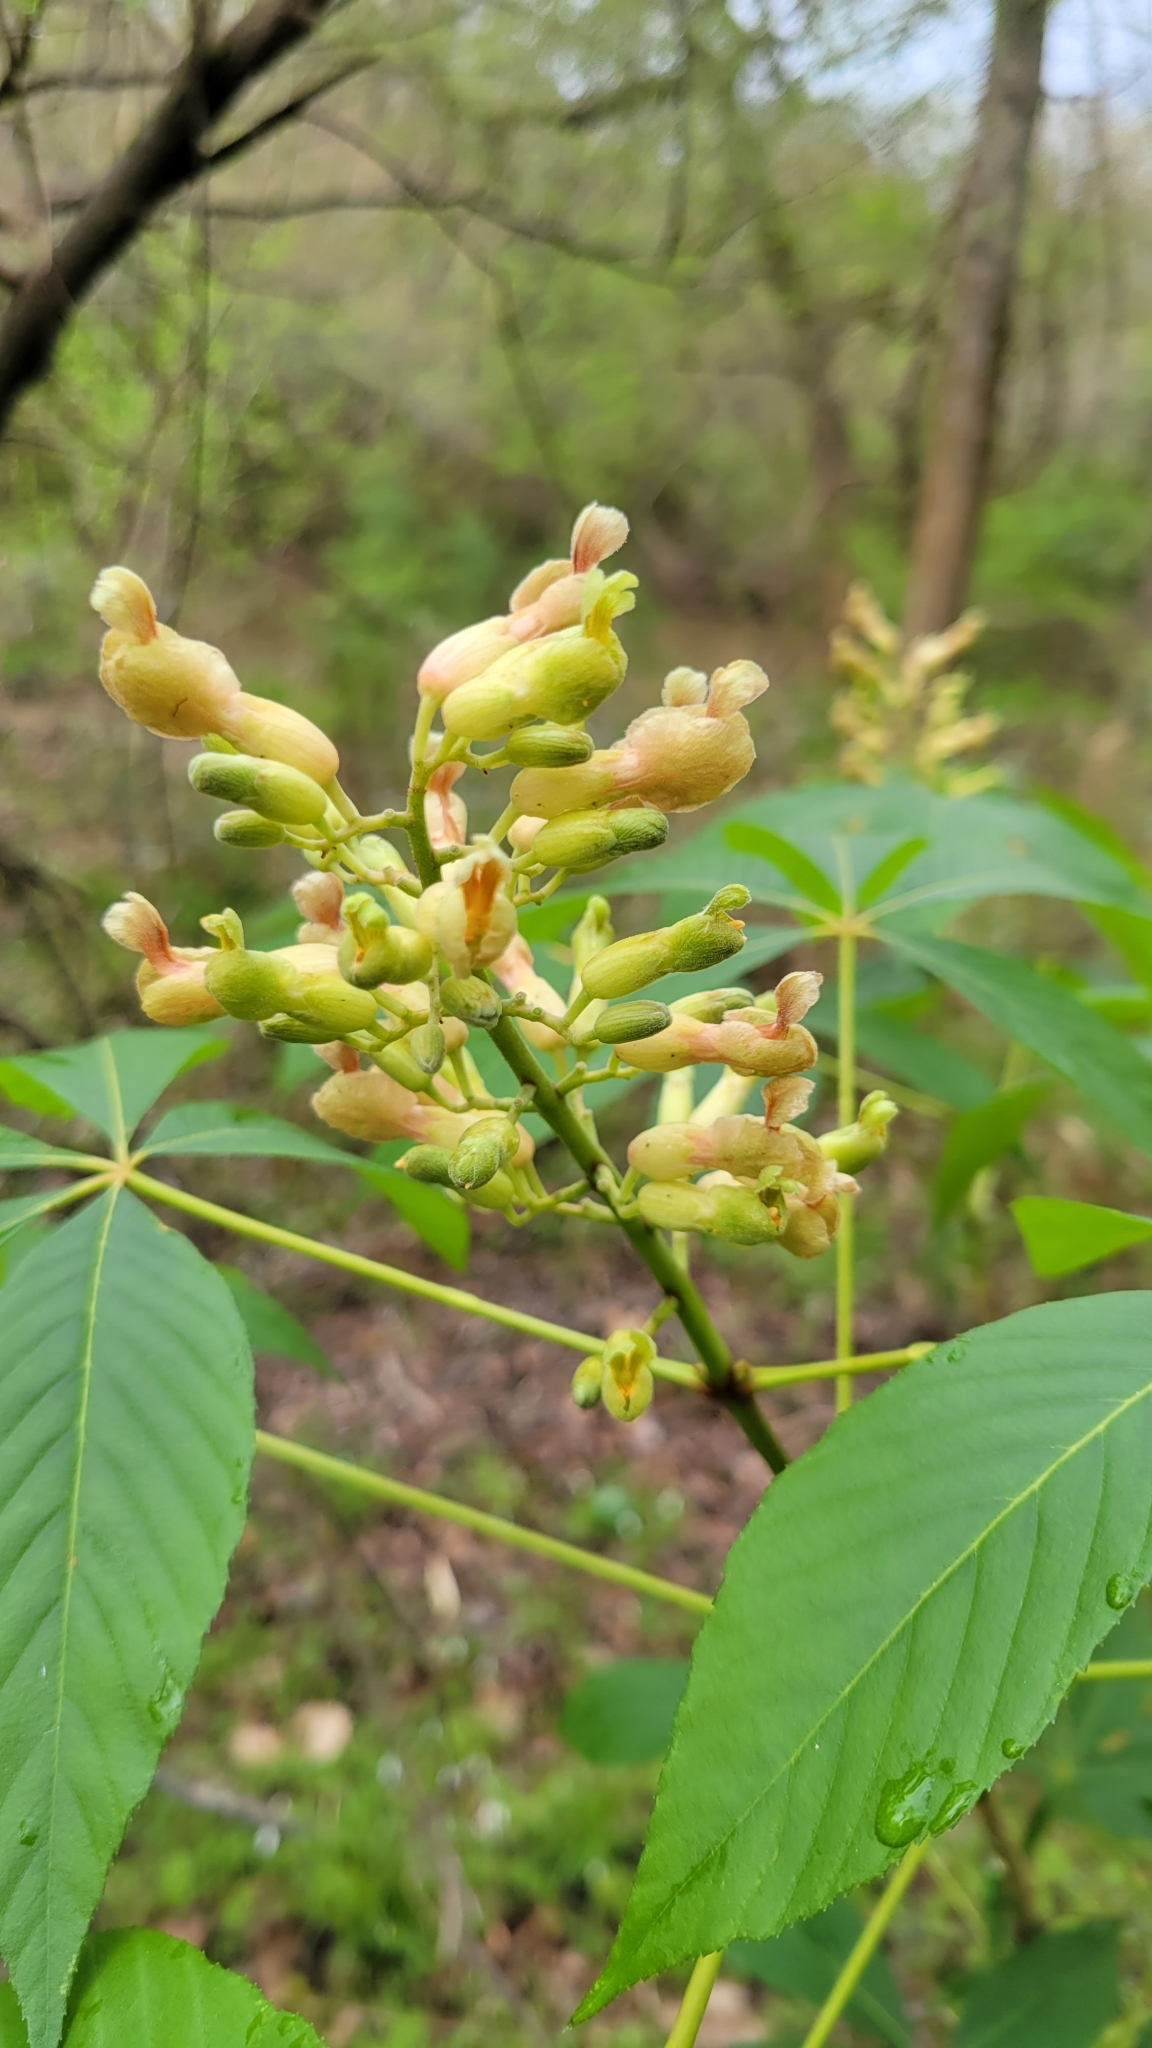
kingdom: Plantae
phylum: Tracheophyta
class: Magnoliopsida
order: Sapindales
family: Sapindaceae
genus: Aesculus
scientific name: Aesculus sylvatica
